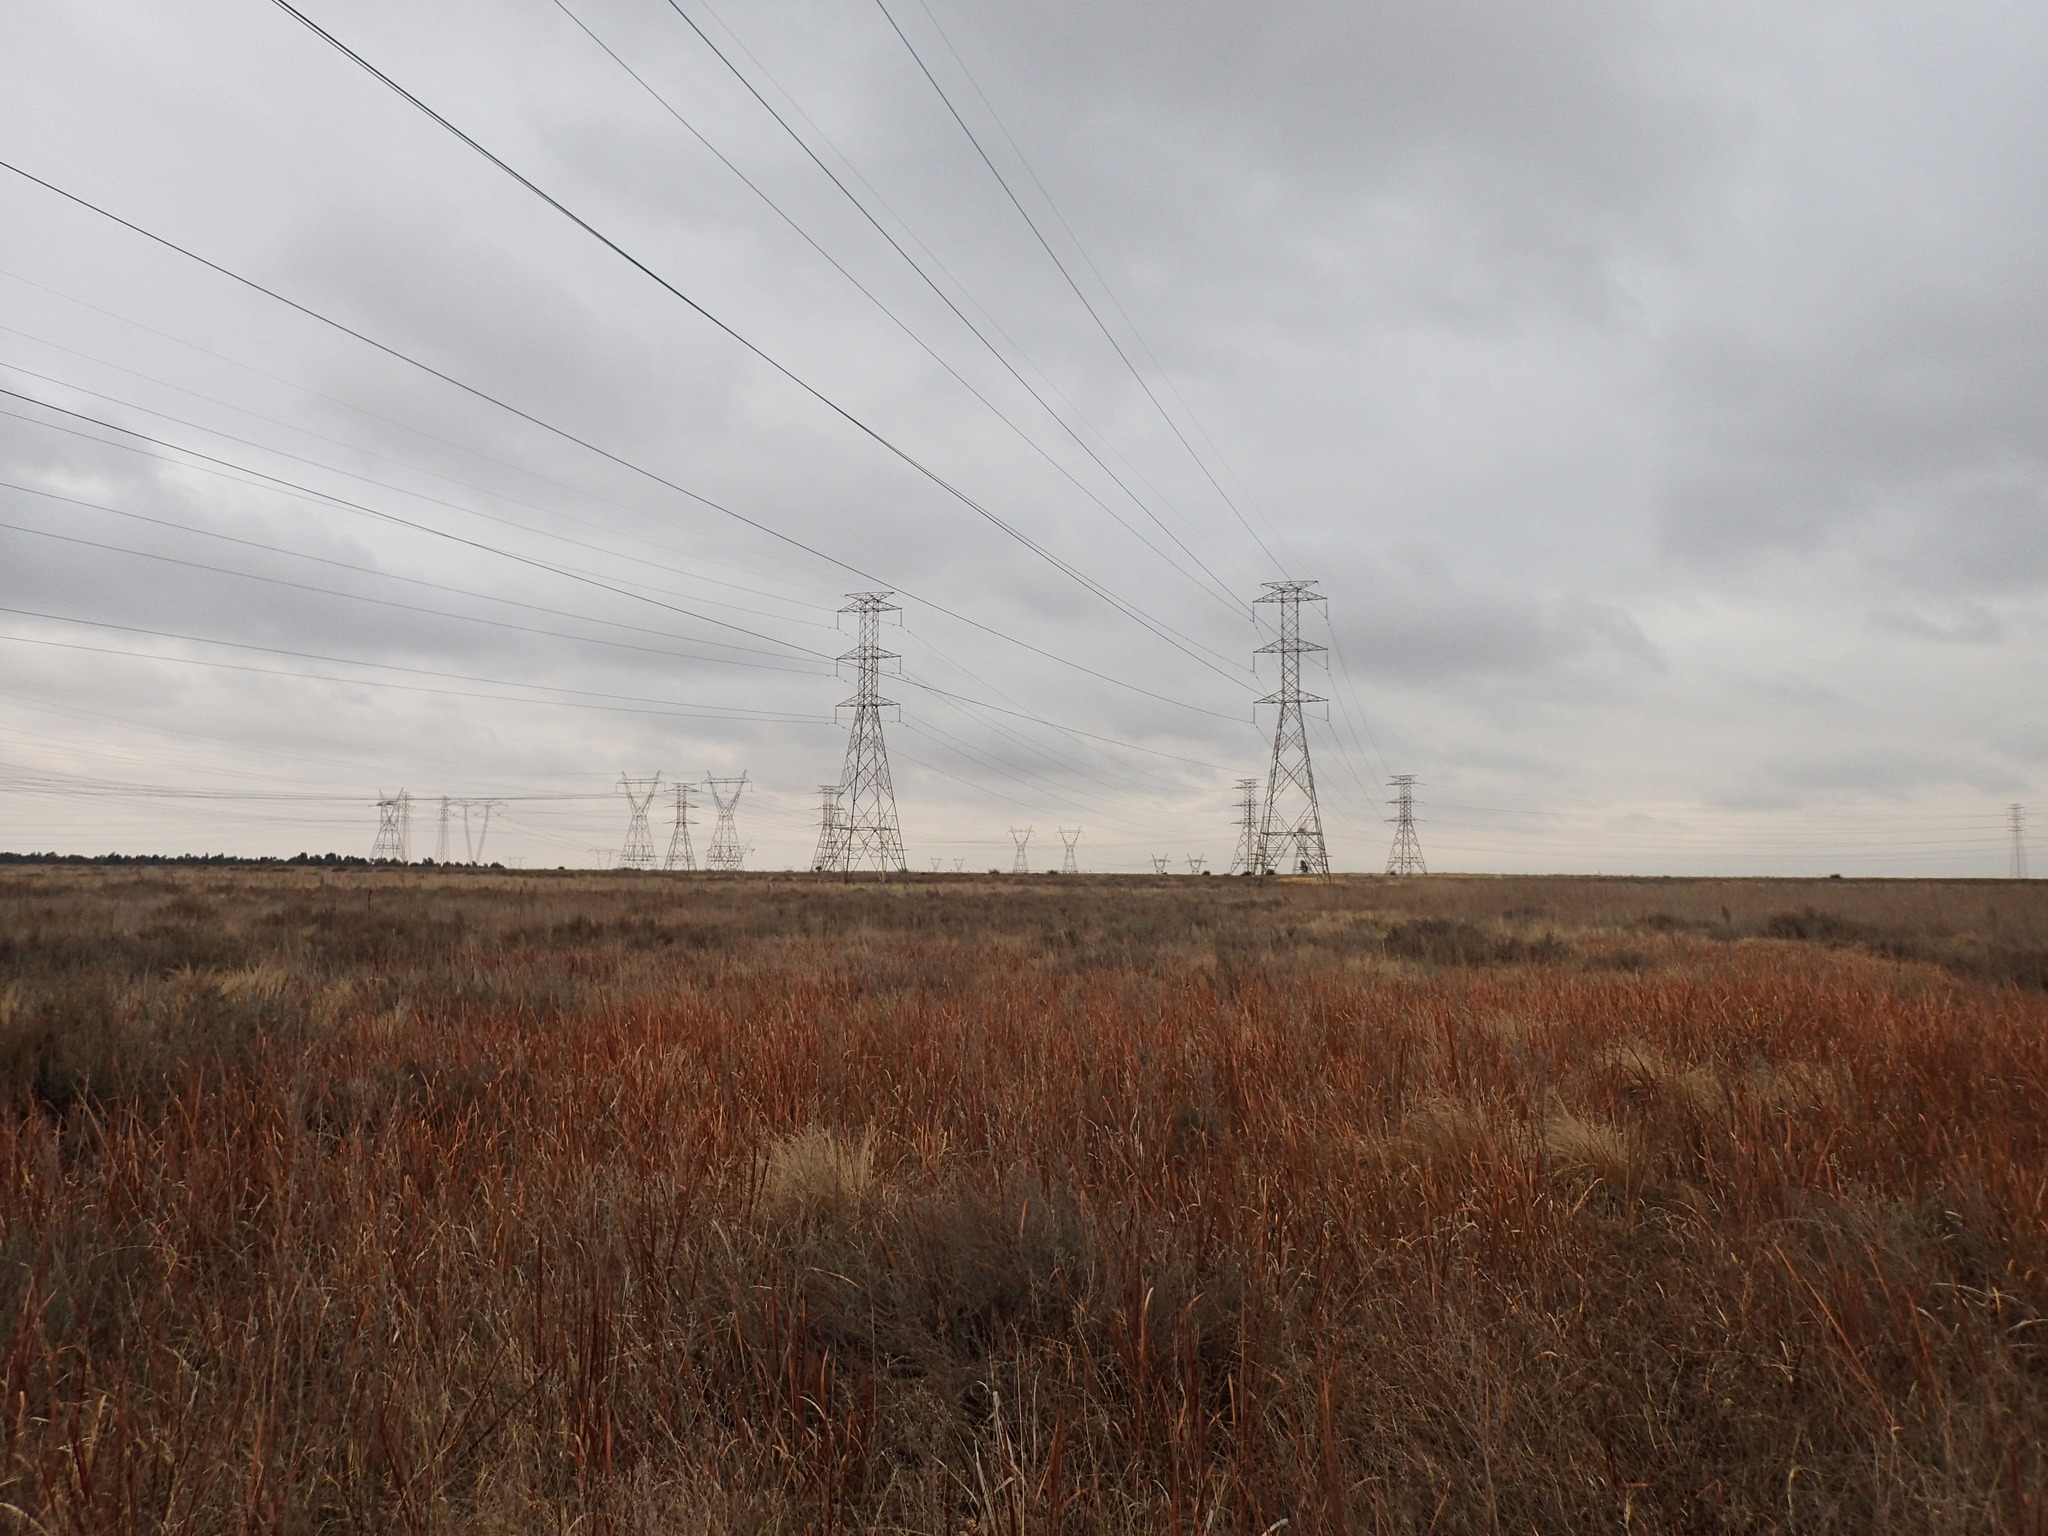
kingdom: Plantae
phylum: Tracheophyta
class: Liliopsida
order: Poales
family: Poaceae
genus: Imperata
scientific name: Imperata cylindrica
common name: Cogongrass
